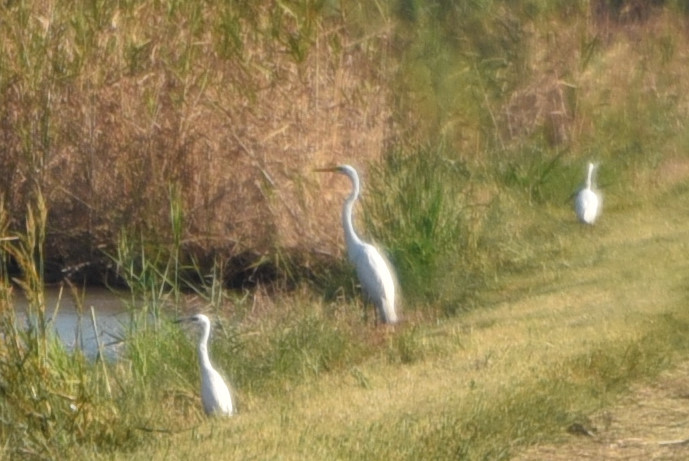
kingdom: Animalia
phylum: Chordata
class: Aves
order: Pelecaniformes
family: Ardeidae
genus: Ardea
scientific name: Ardea alba
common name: Great egret
